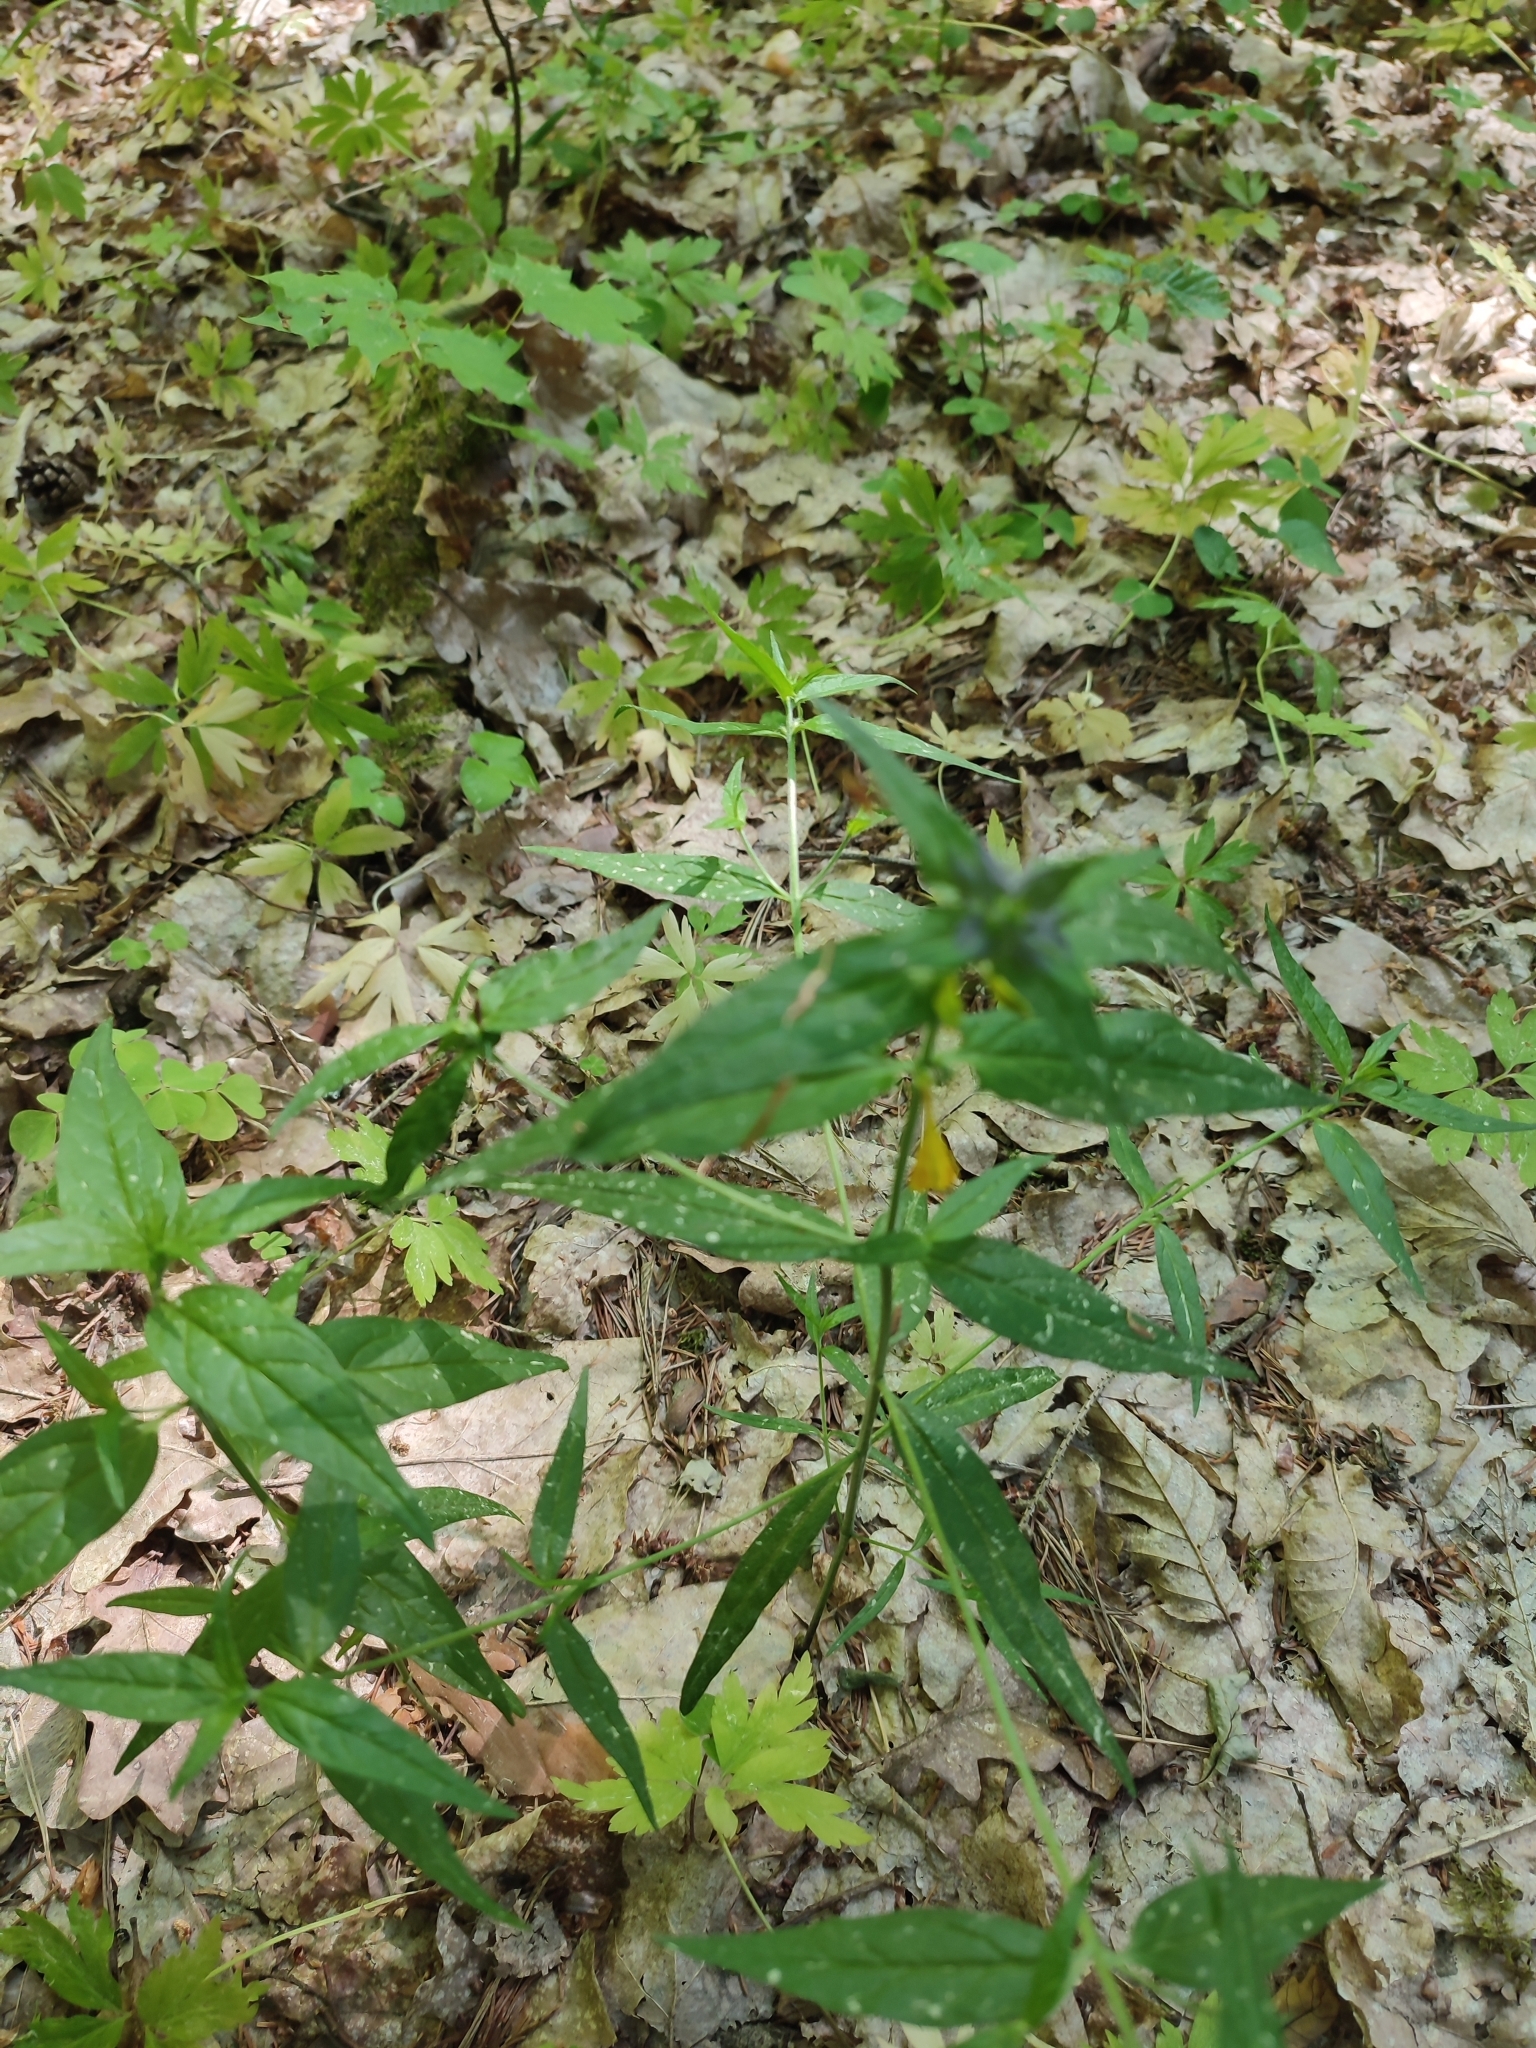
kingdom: Plantae
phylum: Tracheophyta
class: Magnoliopsida
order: Lamiales
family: Orobanchaceae
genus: Melampyrum
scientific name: Melampyrum nemorosum
